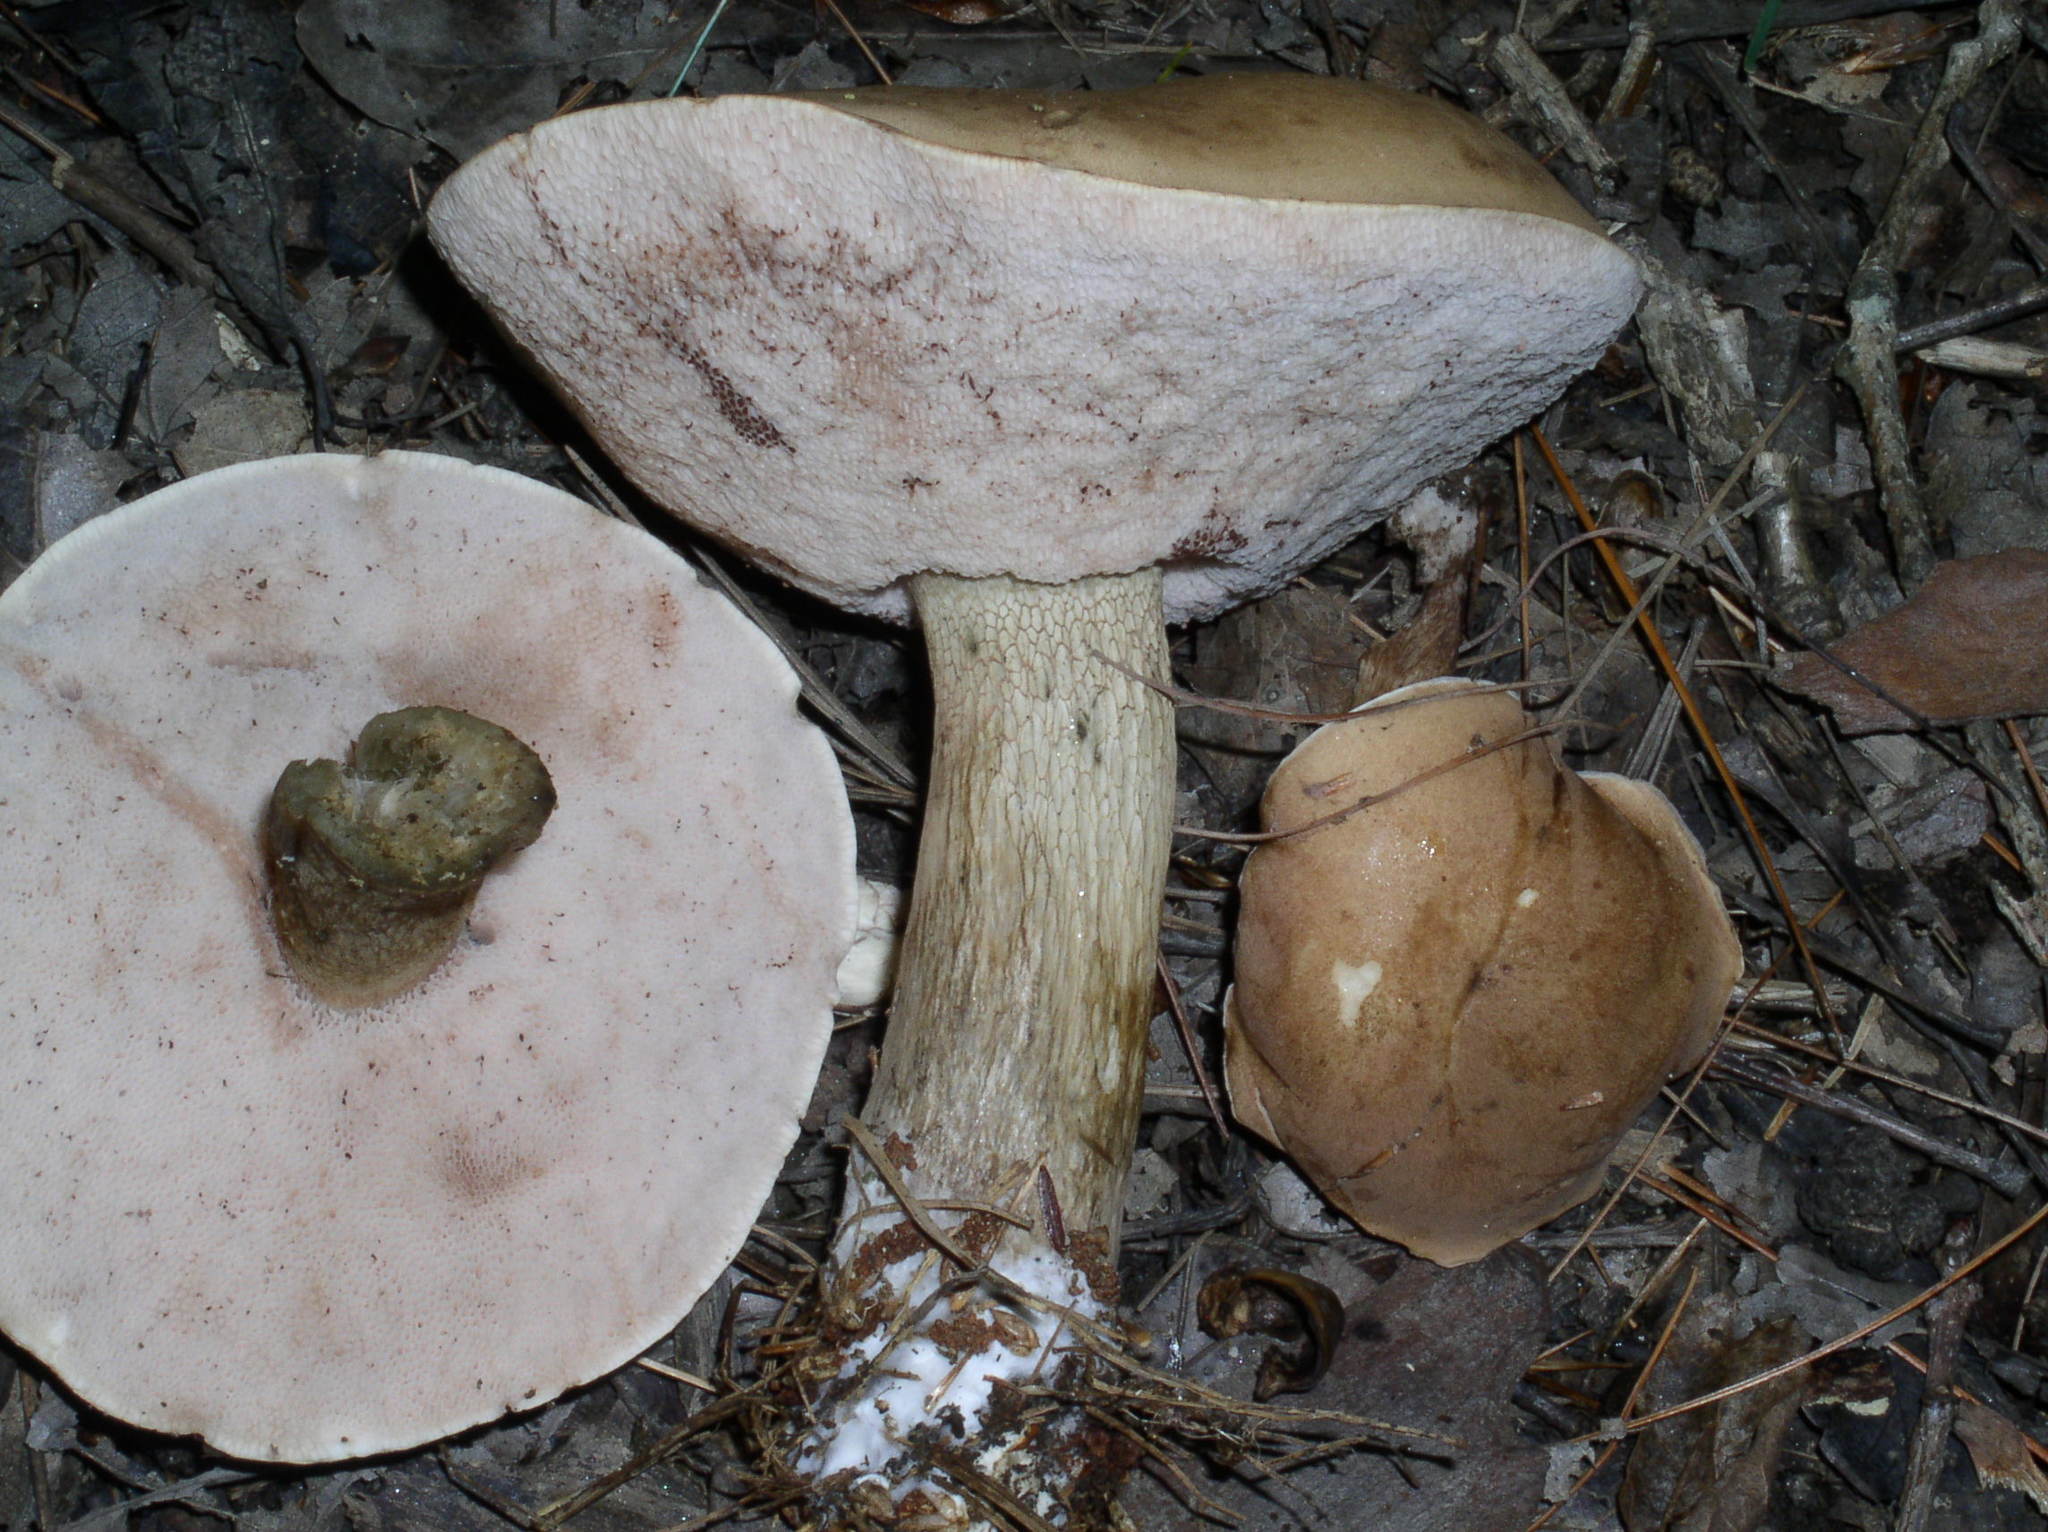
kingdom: Fungi
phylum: Basidiomycota
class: Agaricomycetes
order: Boletales
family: Boletaceae
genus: Tylopilus
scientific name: Tylopilus felleus
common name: Bitter bolete
